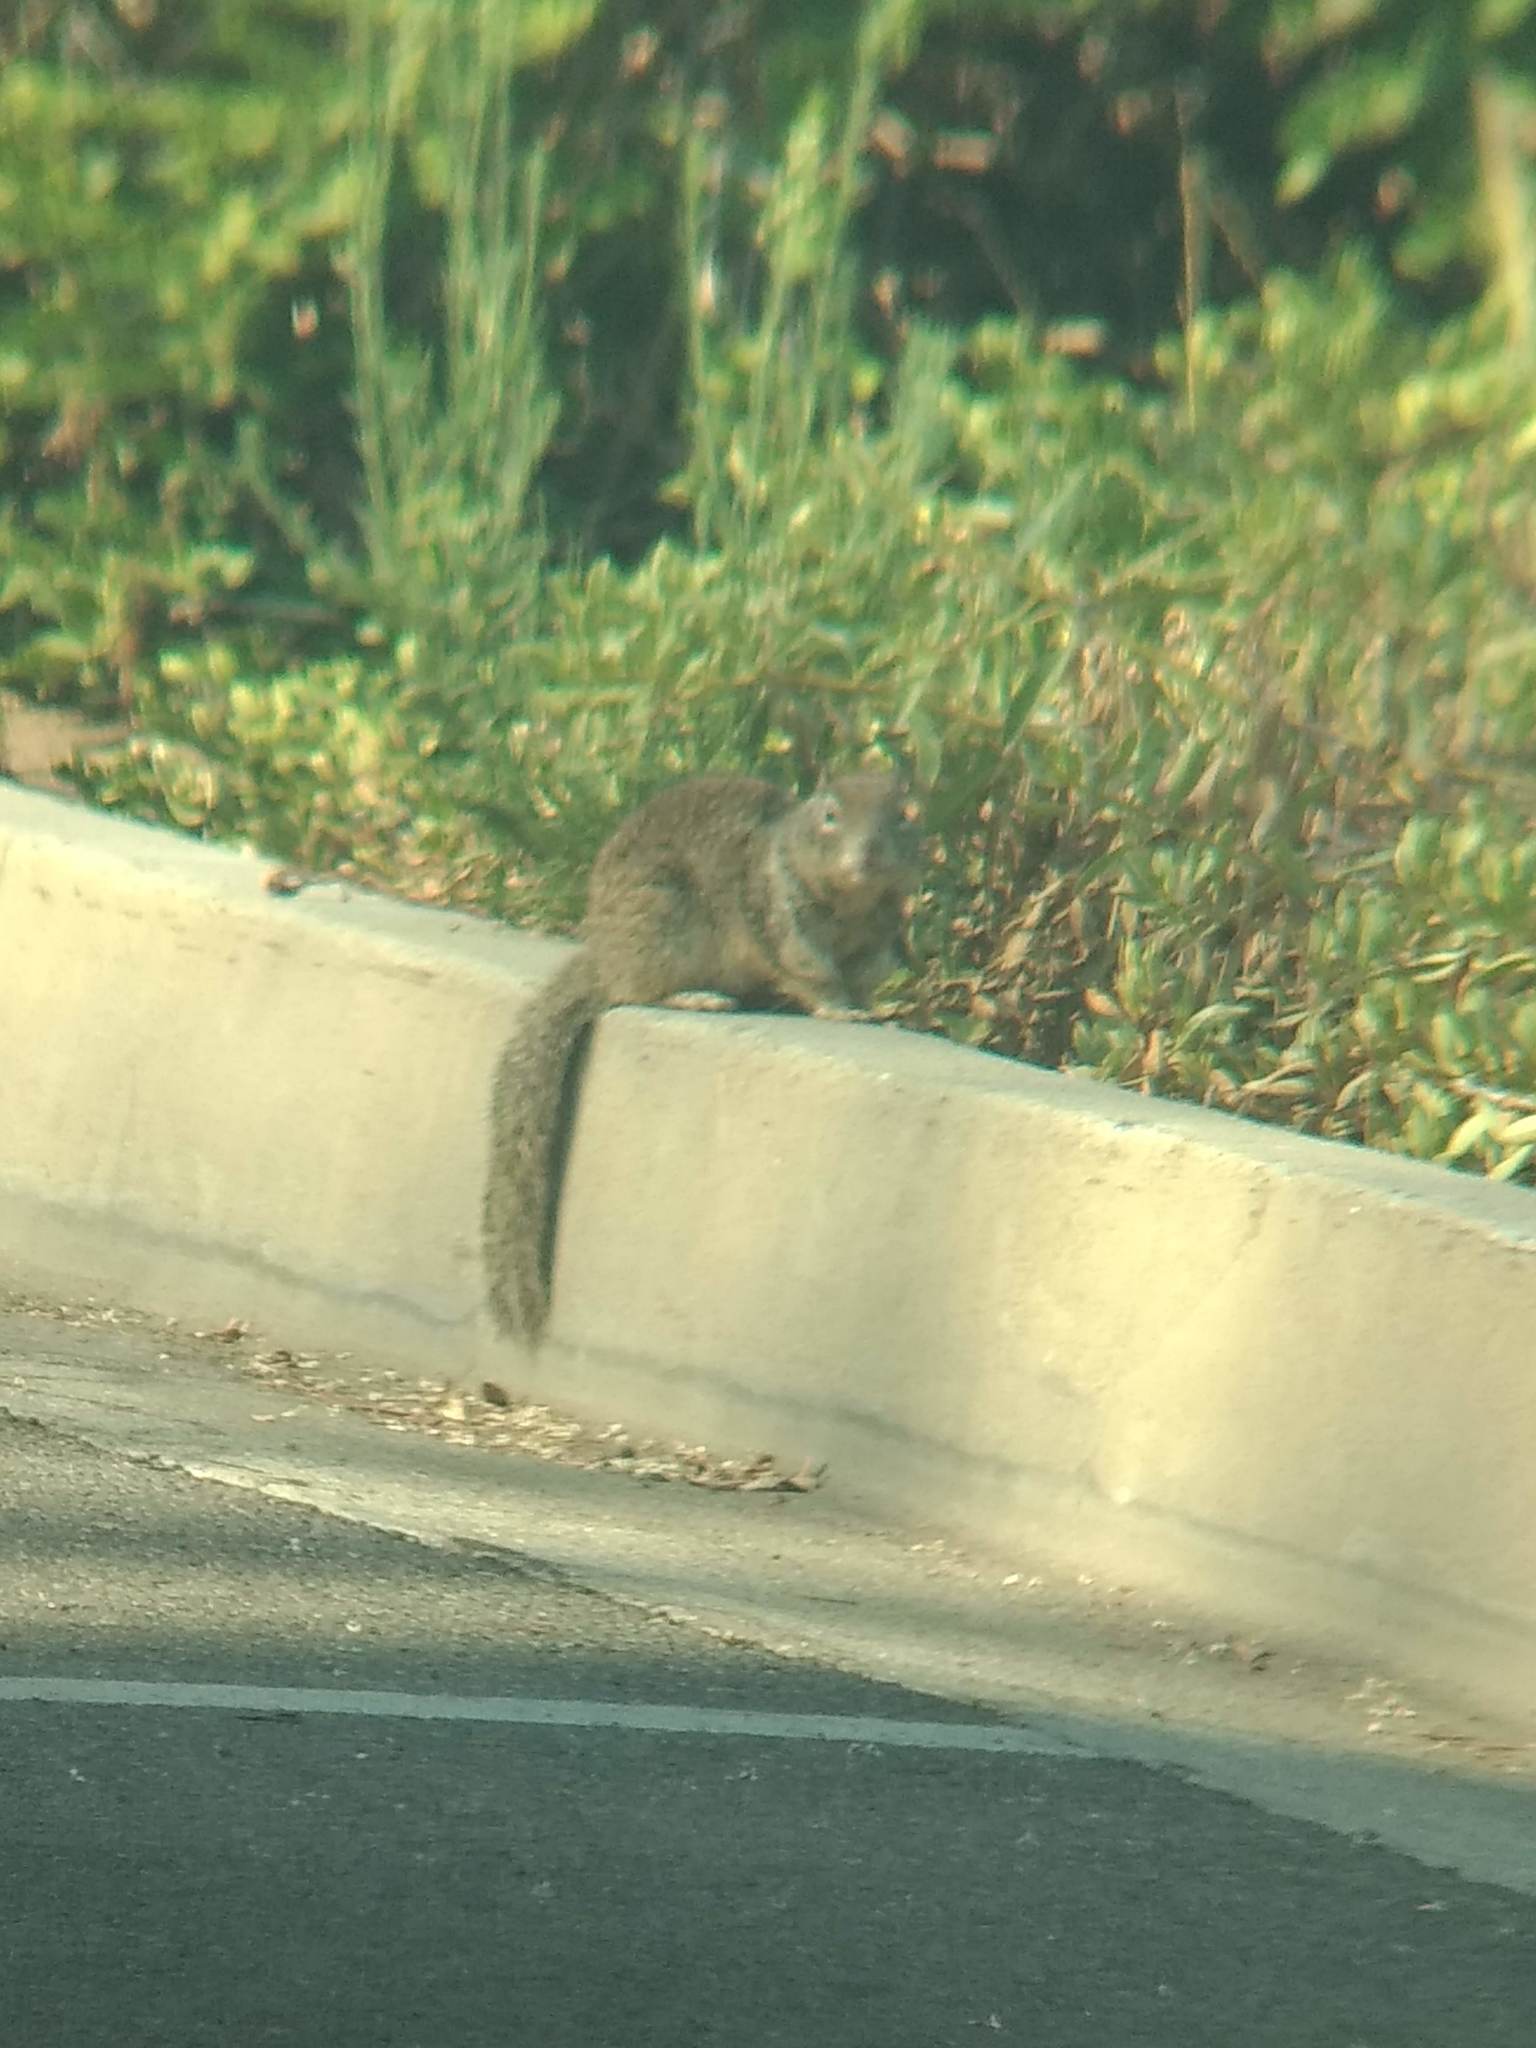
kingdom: Animalia
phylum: Chordata
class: Mammalia
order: Rodentia
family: Sciuridae
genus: Otospermophilus
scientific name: Otospermophilus beecheyi
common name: California ground squirrel
